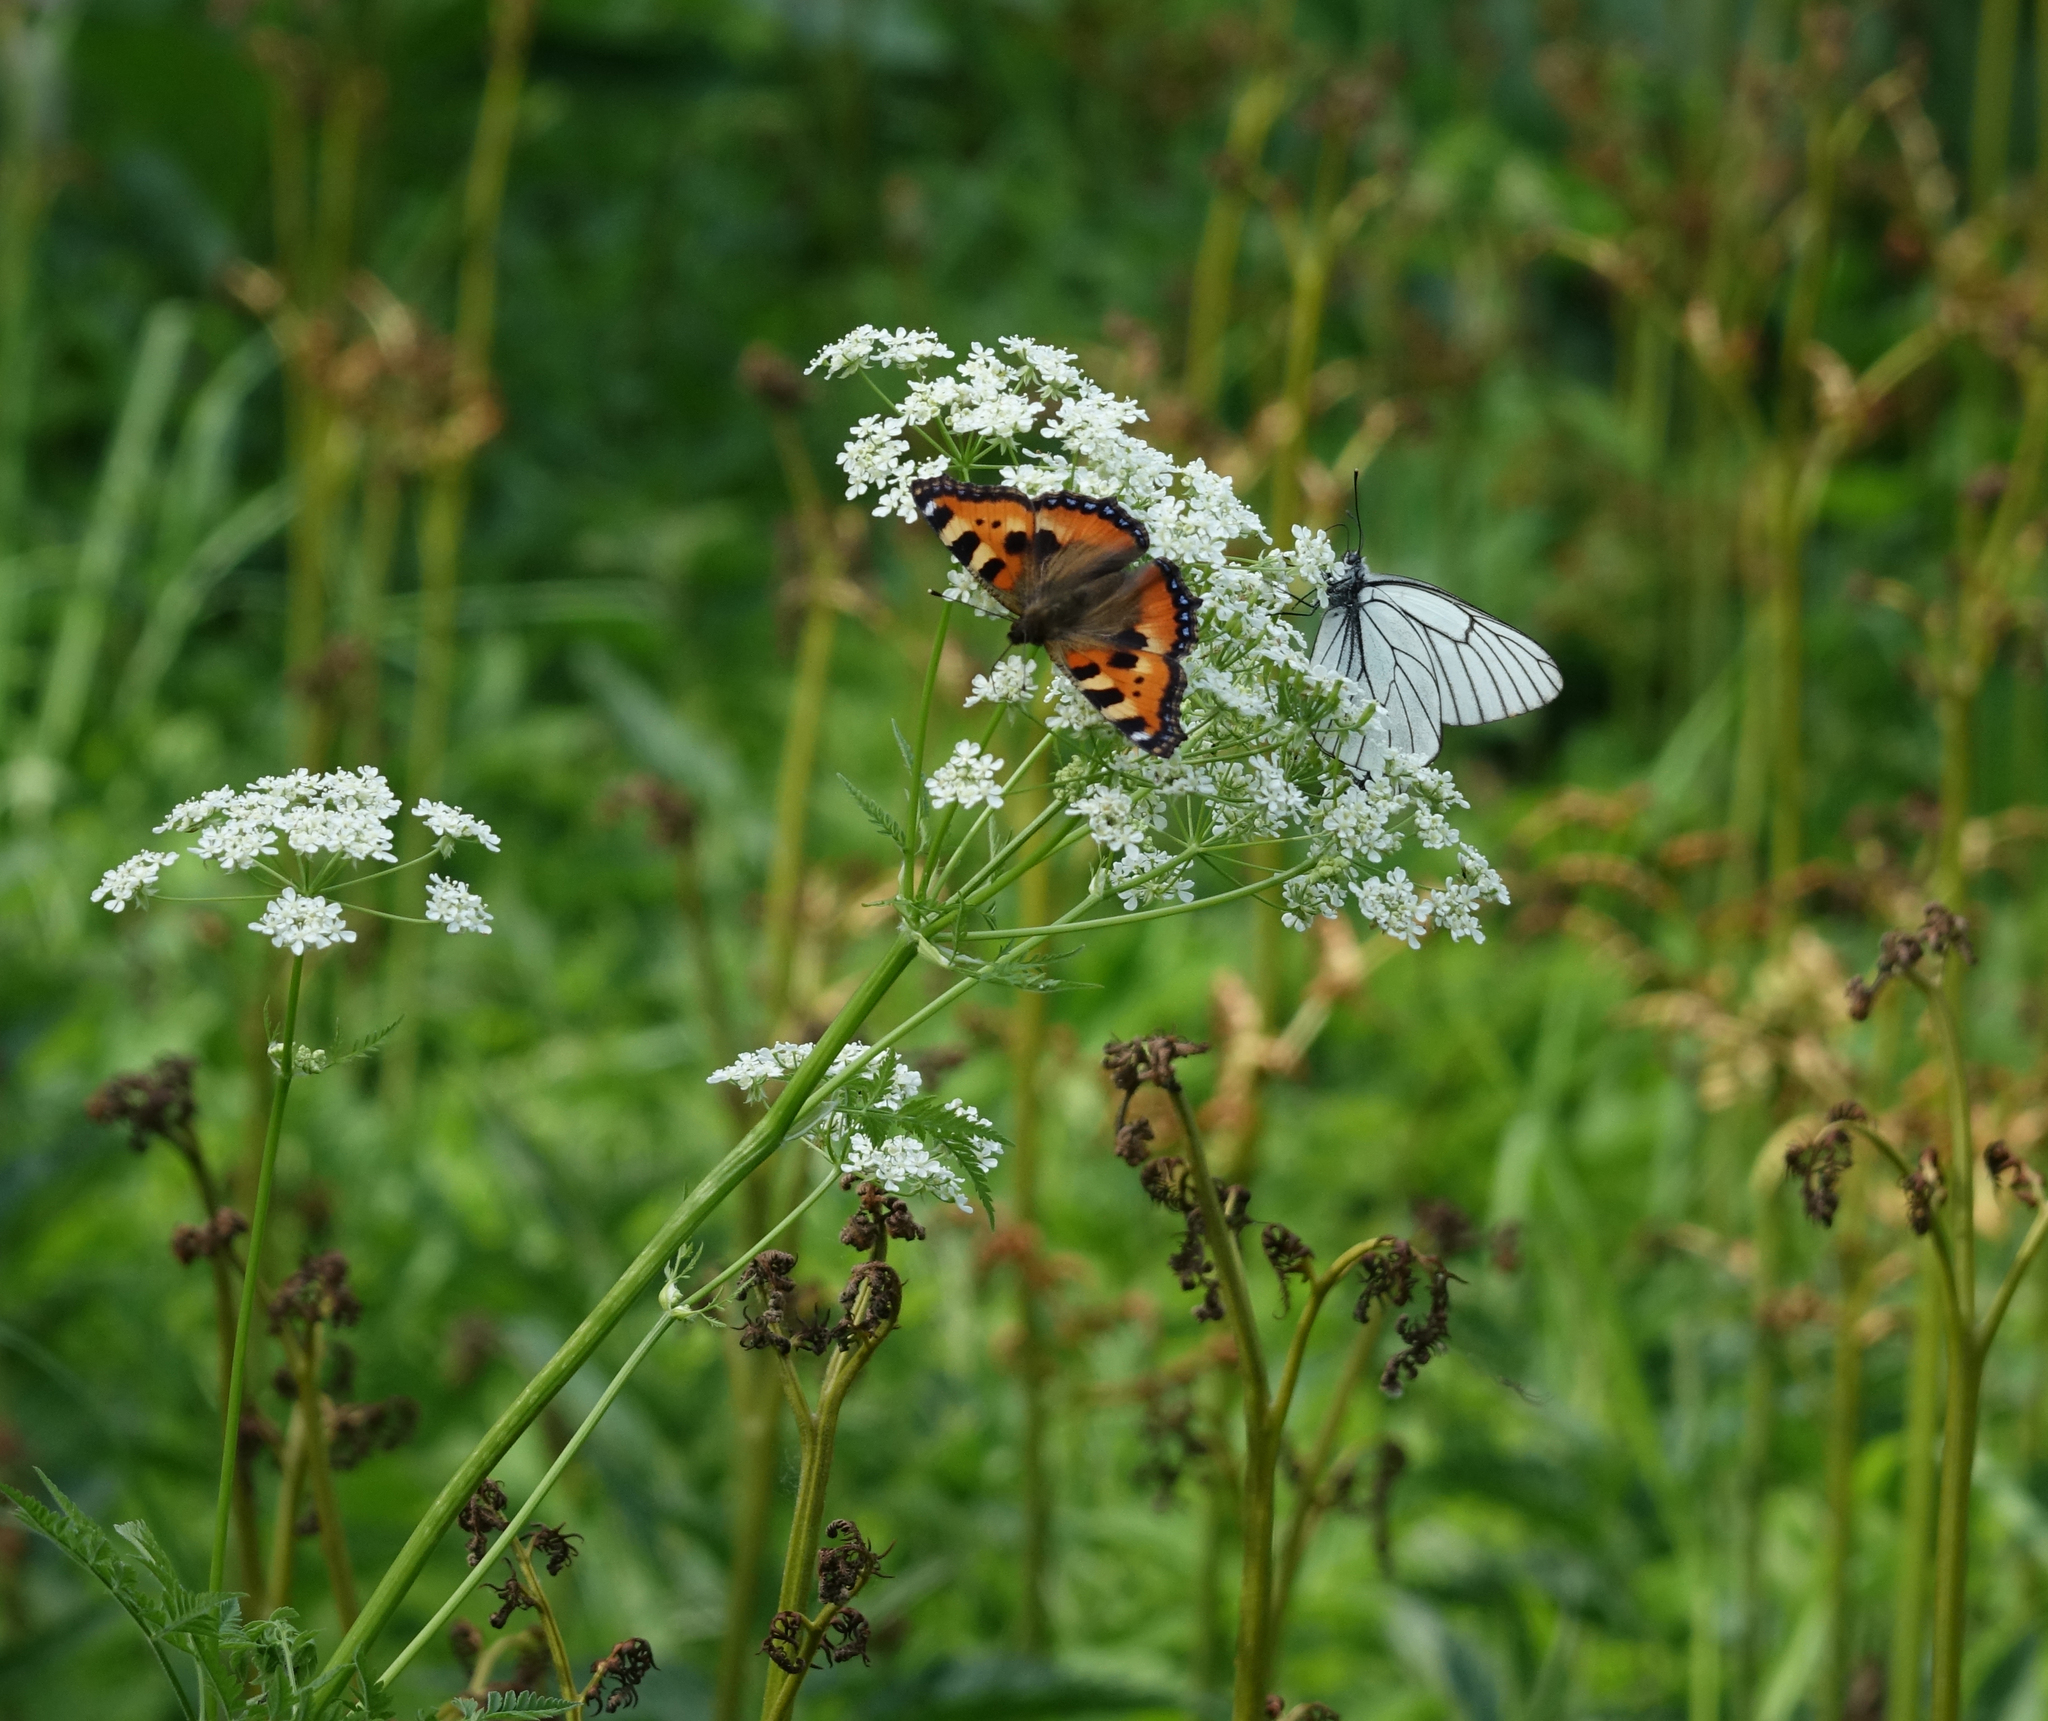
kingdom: Animalia
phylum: Arthropoda
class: Insecta
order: Lepidoptera
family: Nymphalidae
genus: Aglais
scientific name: Aglais urticae
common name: Small tortoiseshell
